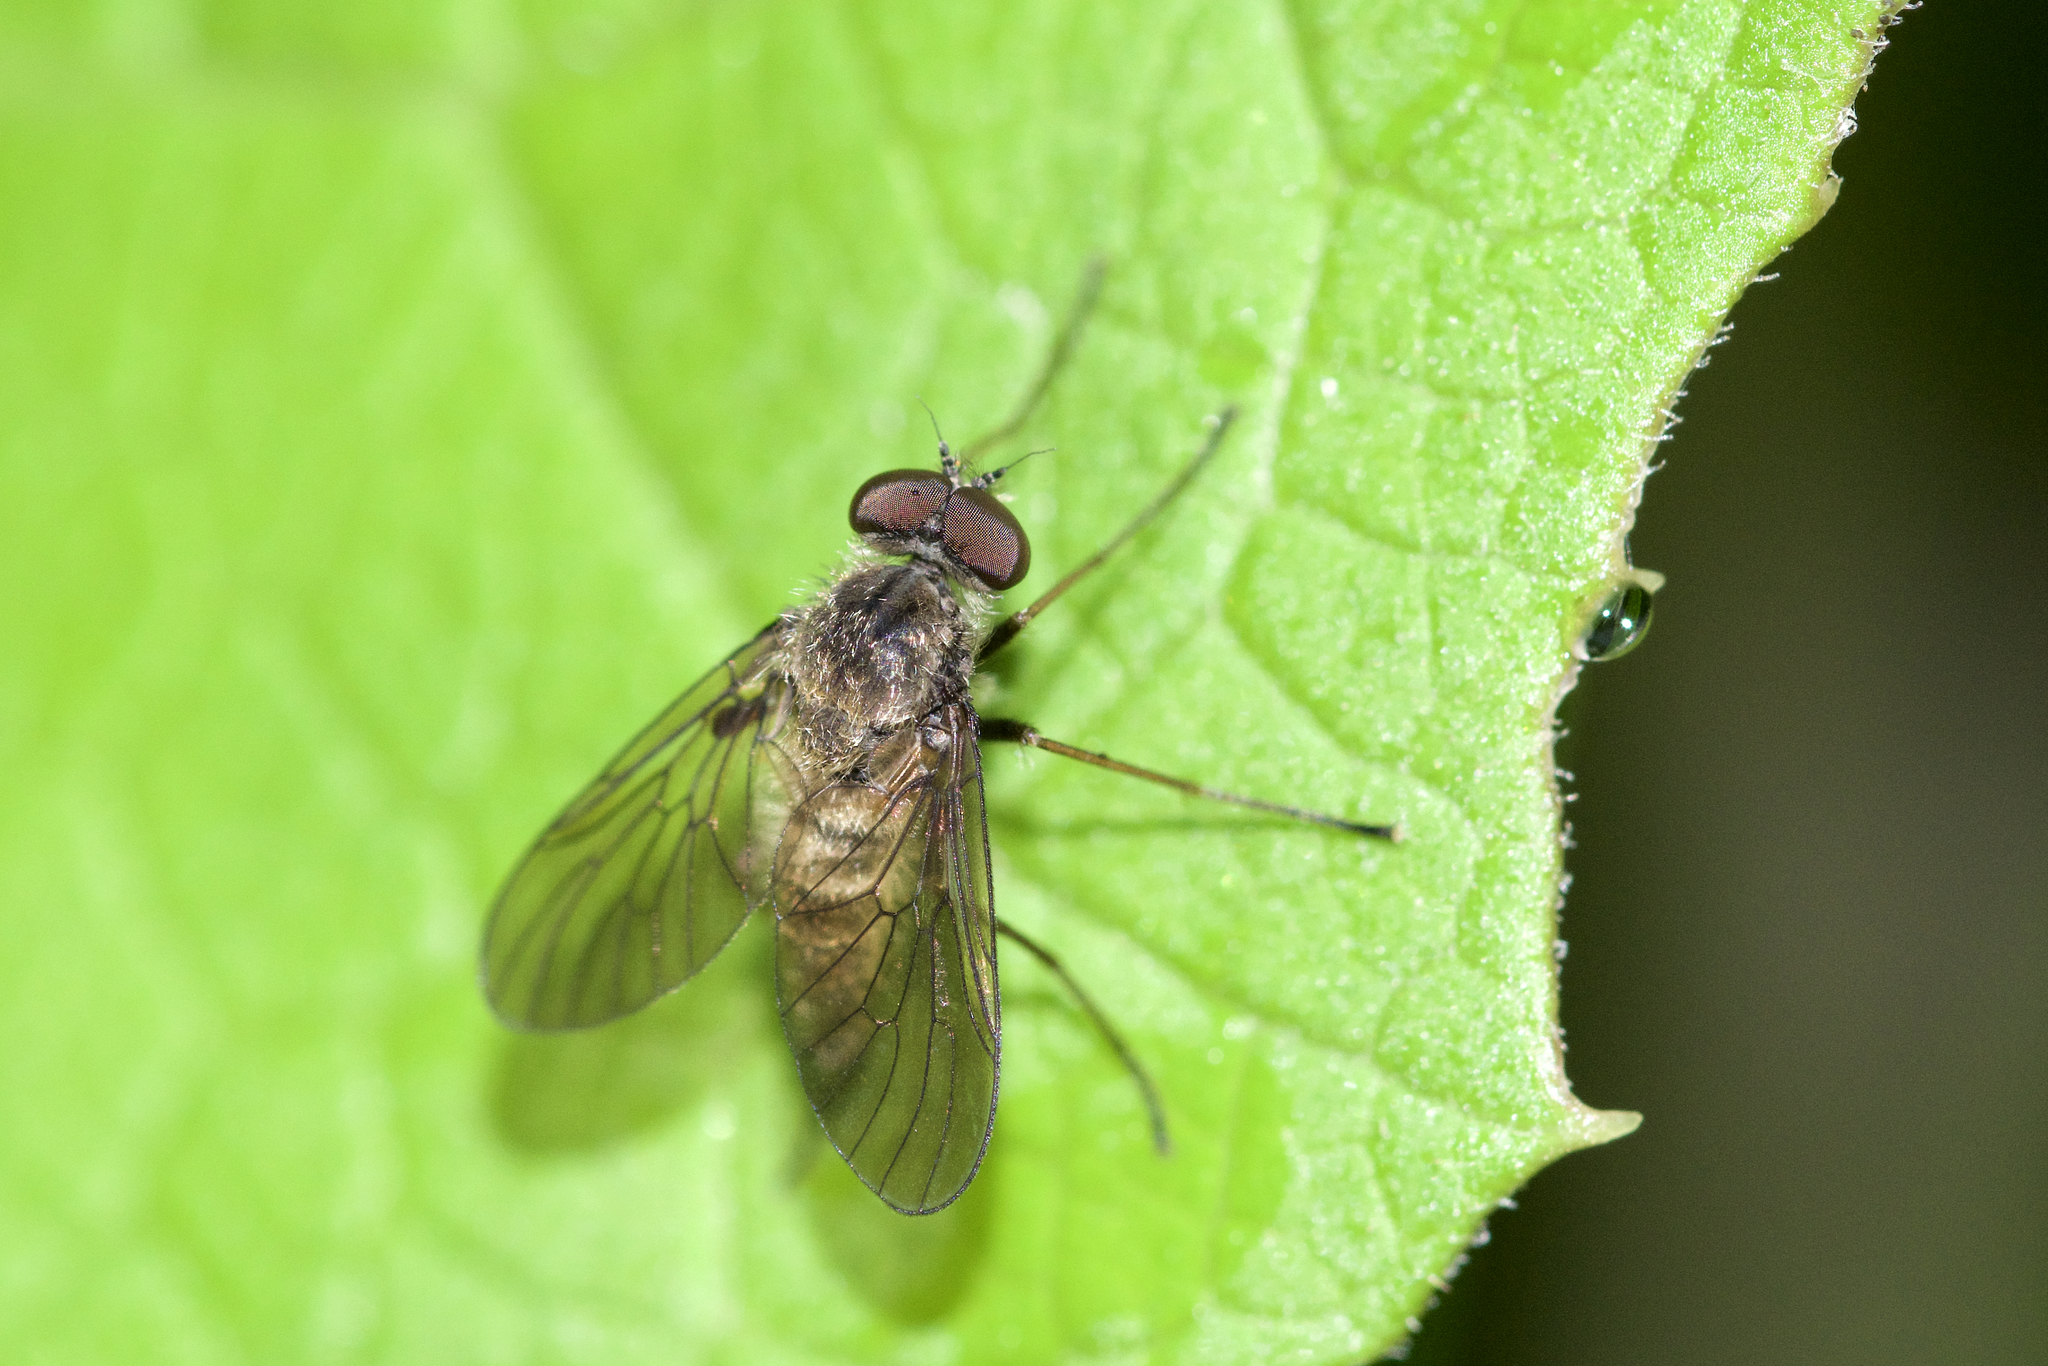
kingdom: Animalia
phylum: Arthropoda
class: Insecta
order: Diptera
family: Rhagionidae
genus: Chrysopilus
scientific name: Chrysopilus pilosus
